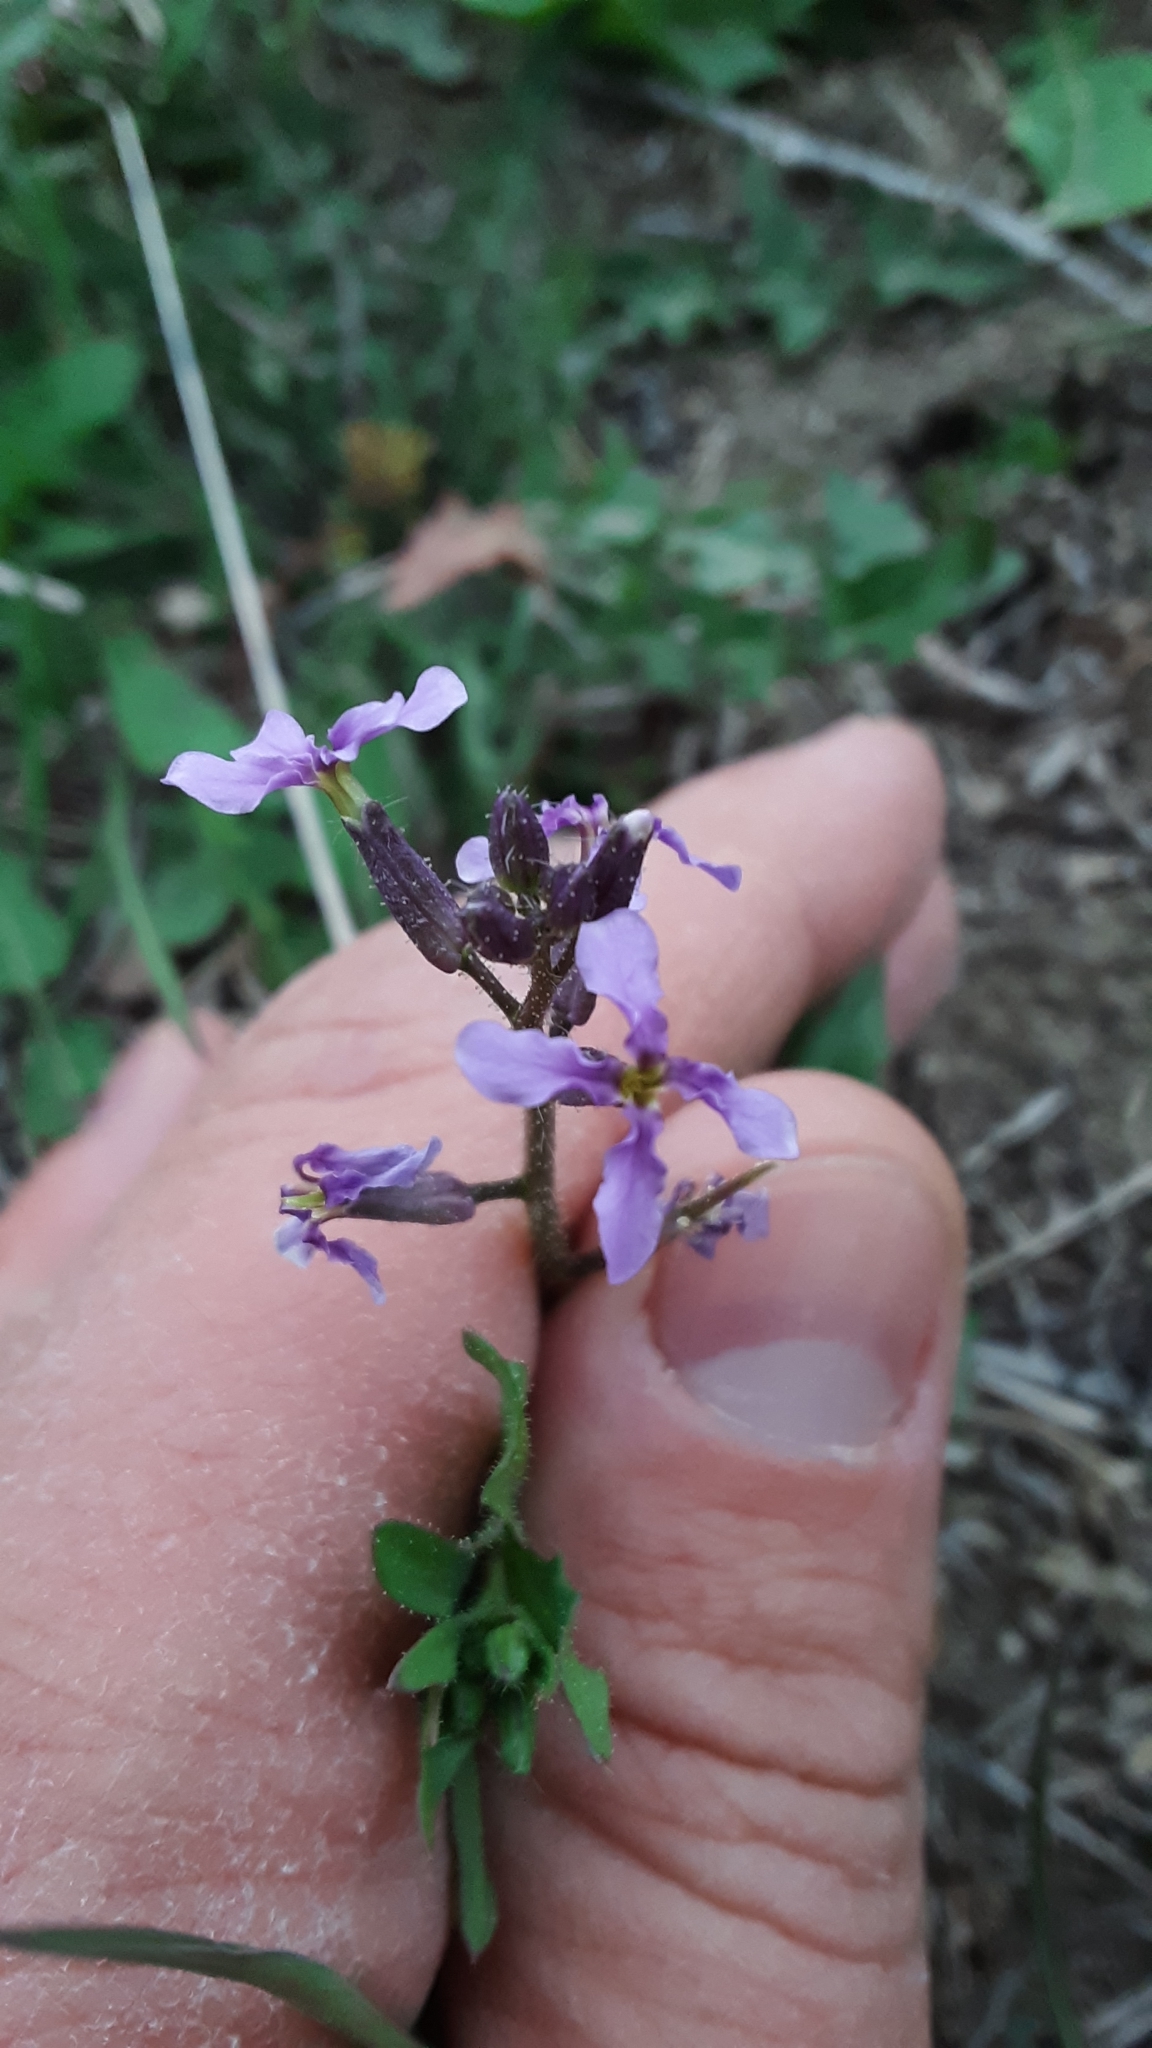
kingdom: Plantae
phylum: Tracheophyta
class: Magnoliopsida
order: Brassicales
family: Brassicaceae
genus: Chorispora
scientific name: Chorispora tenella
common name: Crossflower
